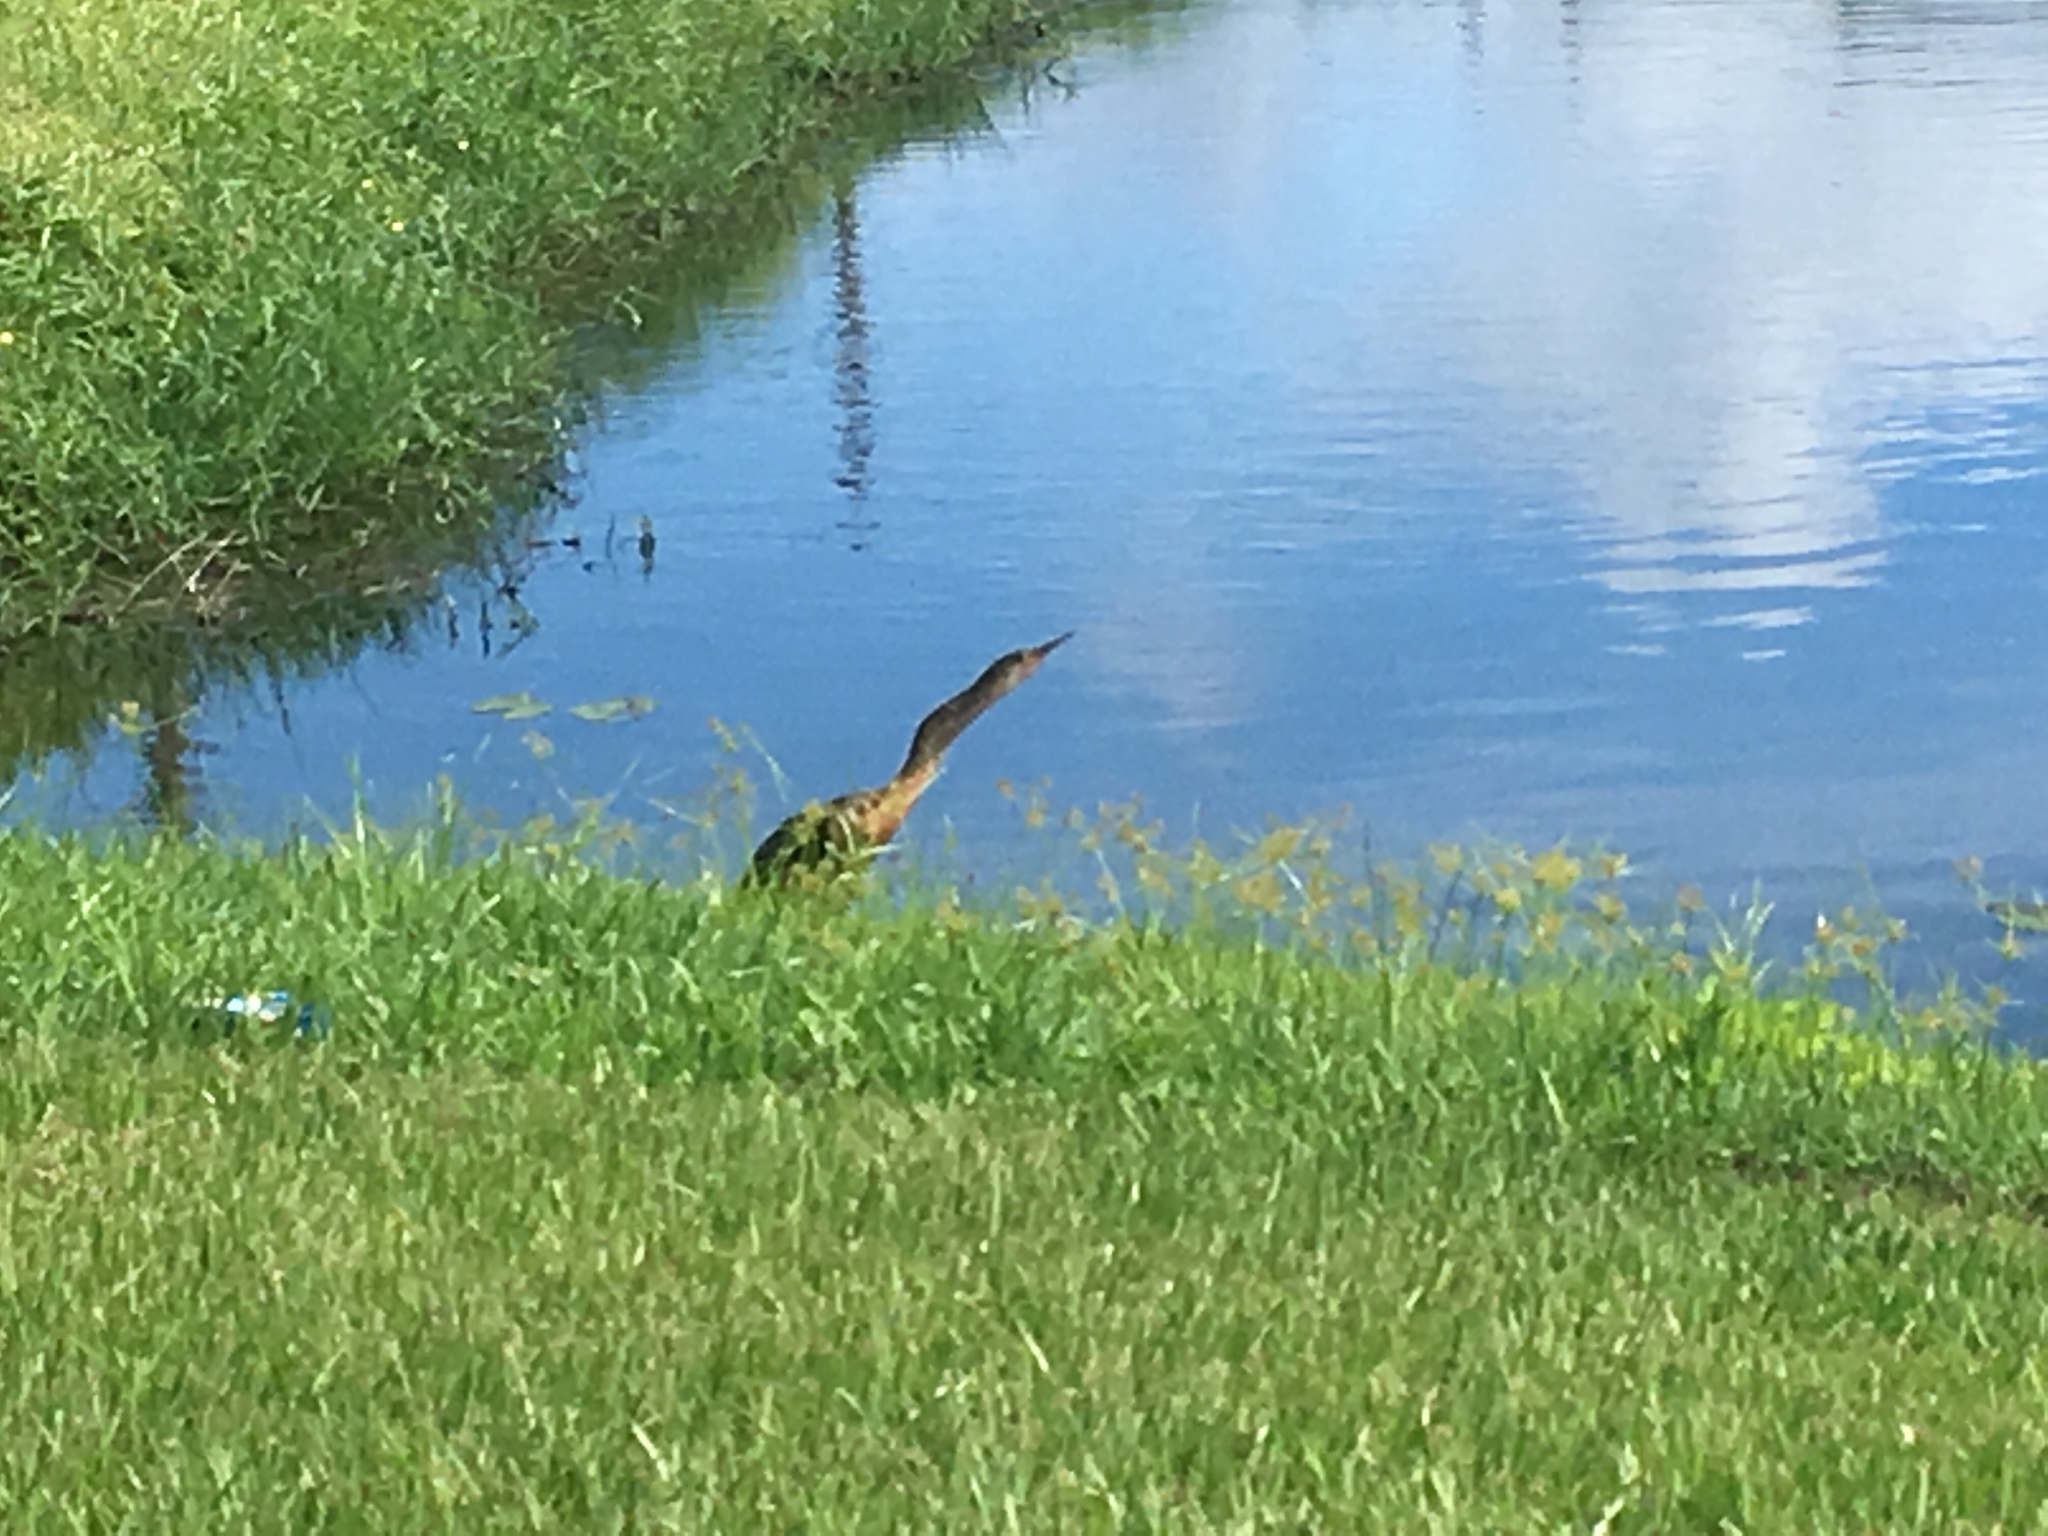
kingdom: Animalia
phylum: Chordata
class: Aves
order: Suliformes
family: Anhingidae
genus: Anhinga
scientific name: Anhinga anhinga
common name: Anhinga
